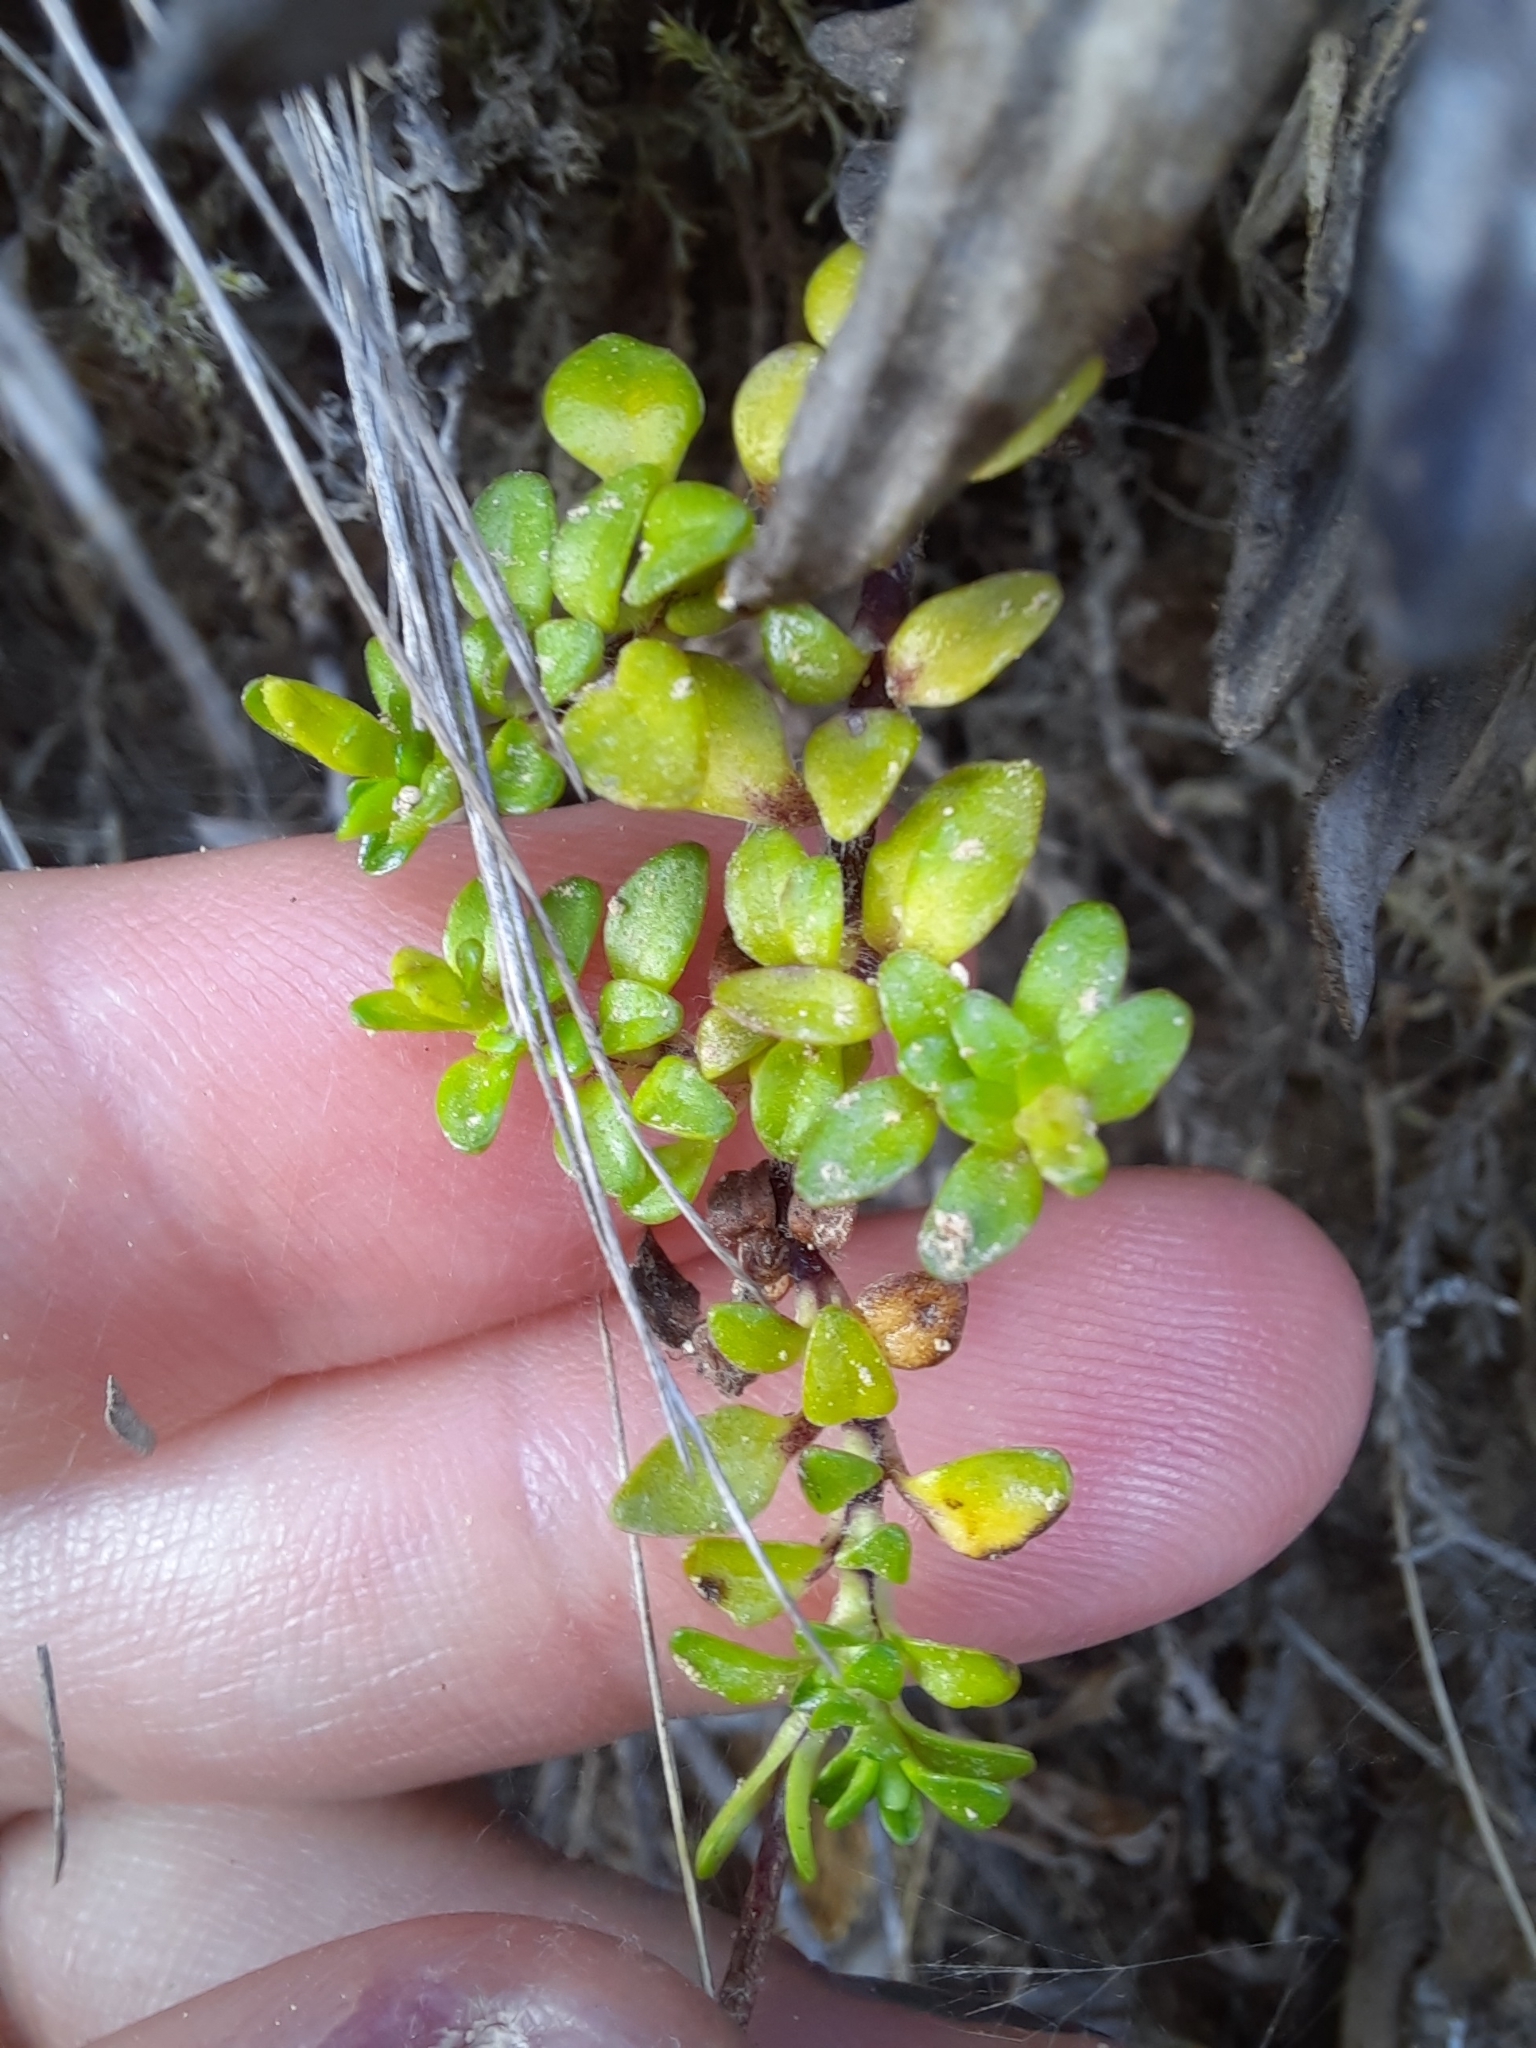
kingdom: Plantae
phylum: Tracheophyta
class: Magnoliopsida
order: Lamiales
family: Plantaginaceae
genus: Ourisia
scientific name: Ourisia caespitosa
